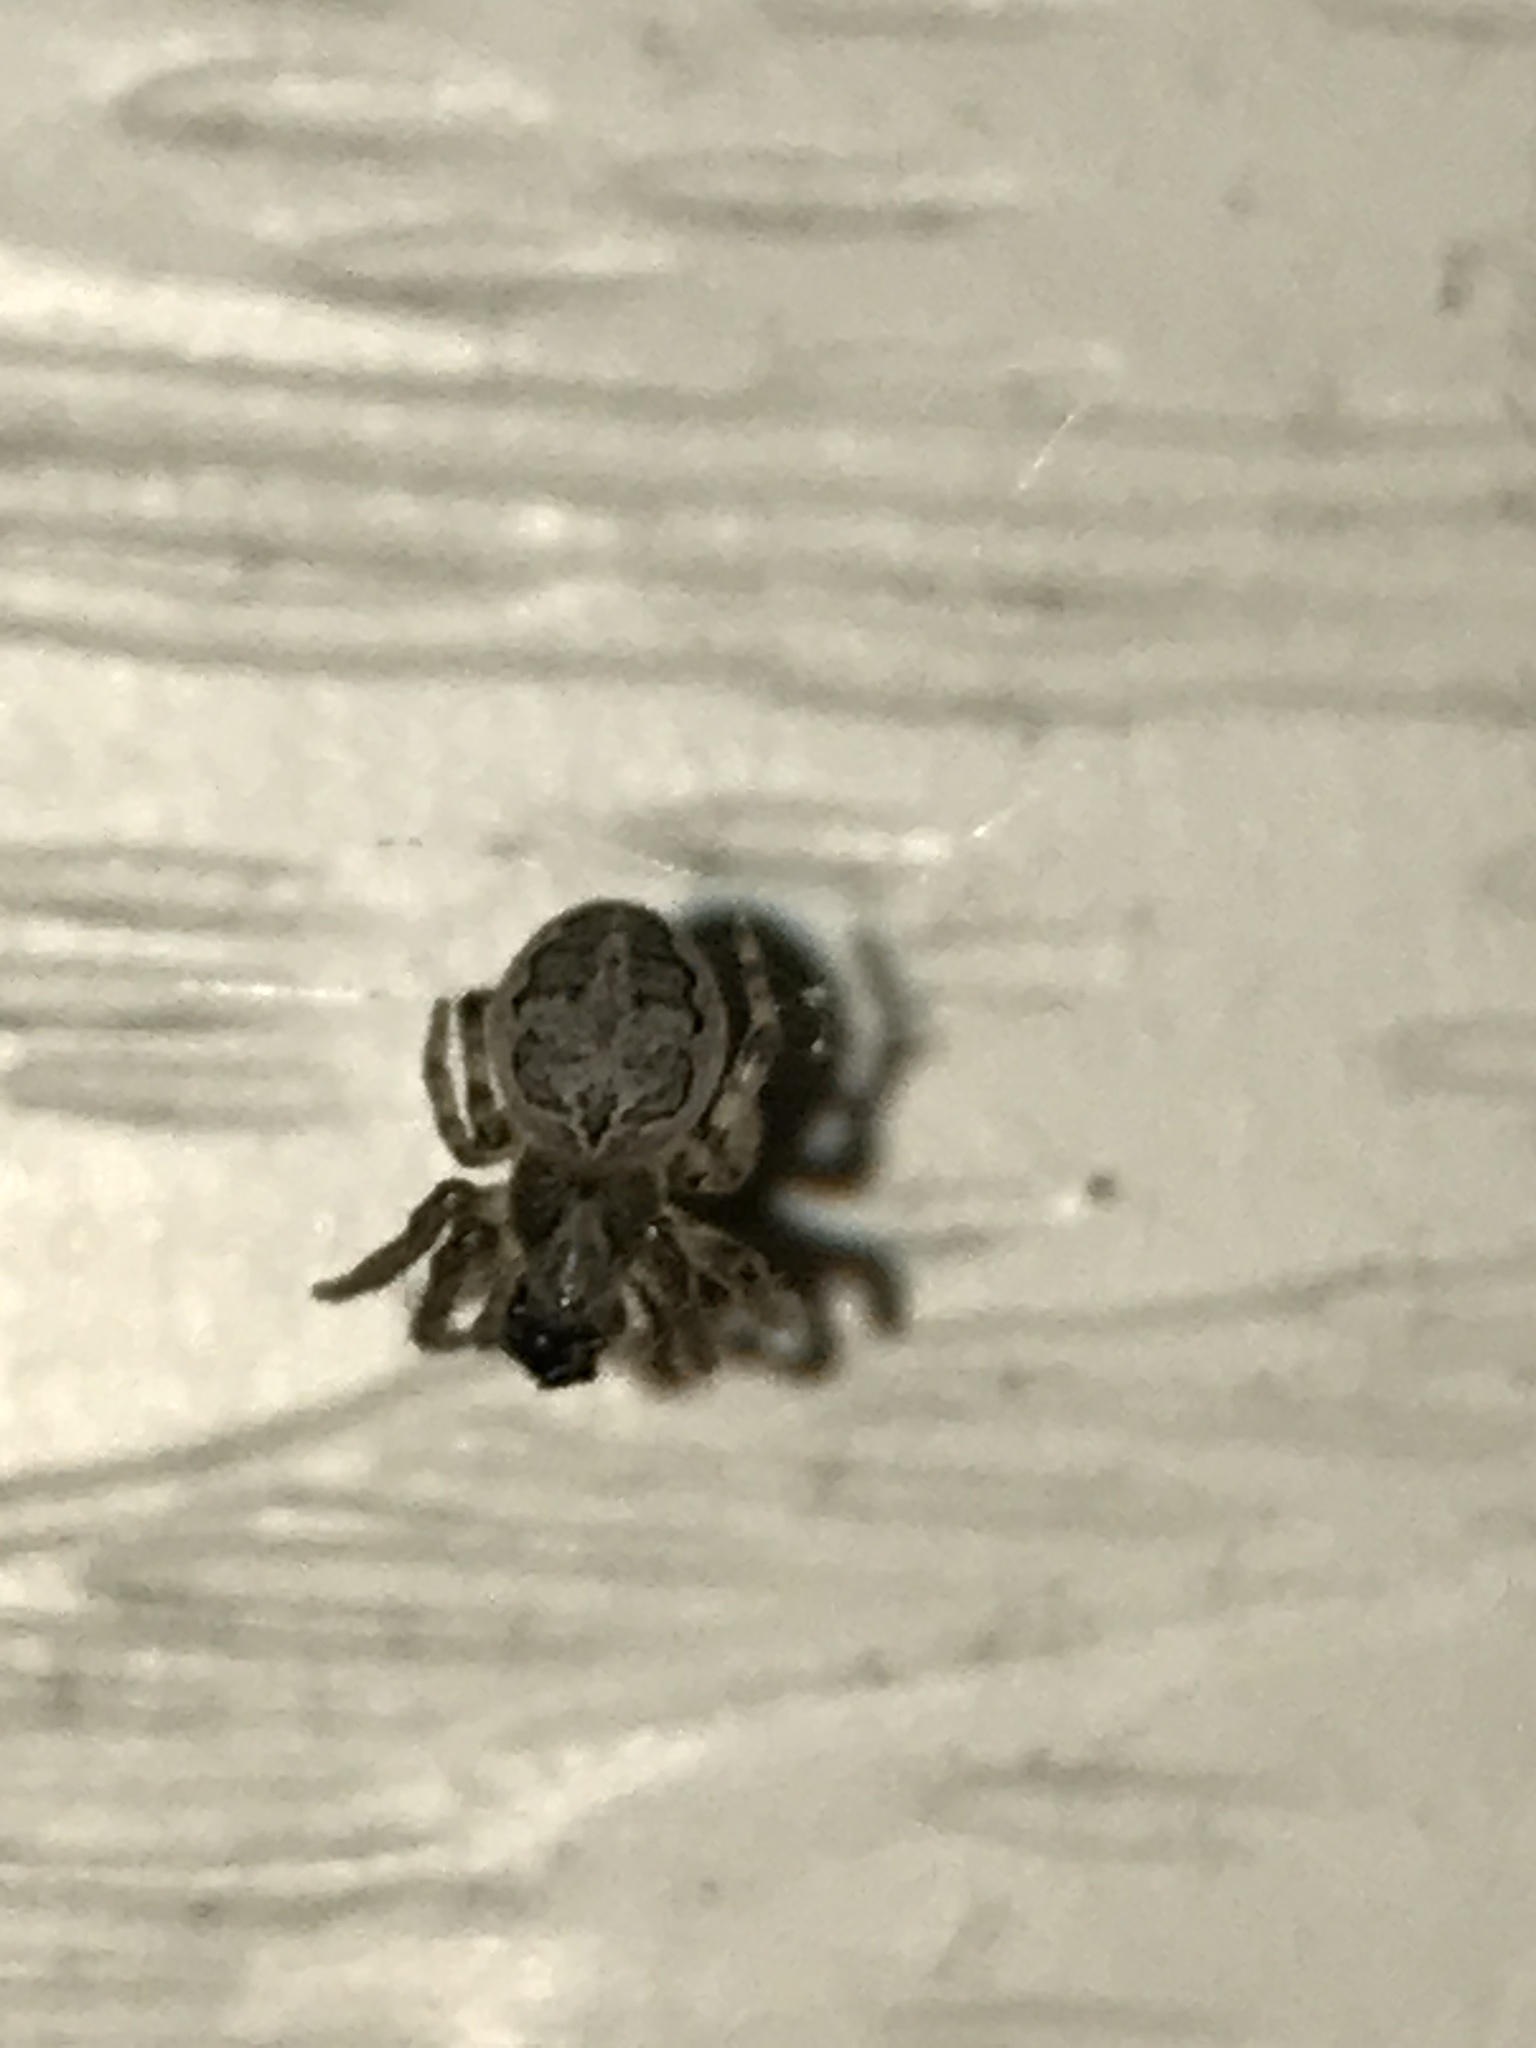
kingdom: Animalia
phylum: Arthropoda
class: Arachnida
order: Araneae
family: Araneidae
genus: Larinioides
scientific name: Larinioides sclopetarius
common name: Bridge orbweaver
